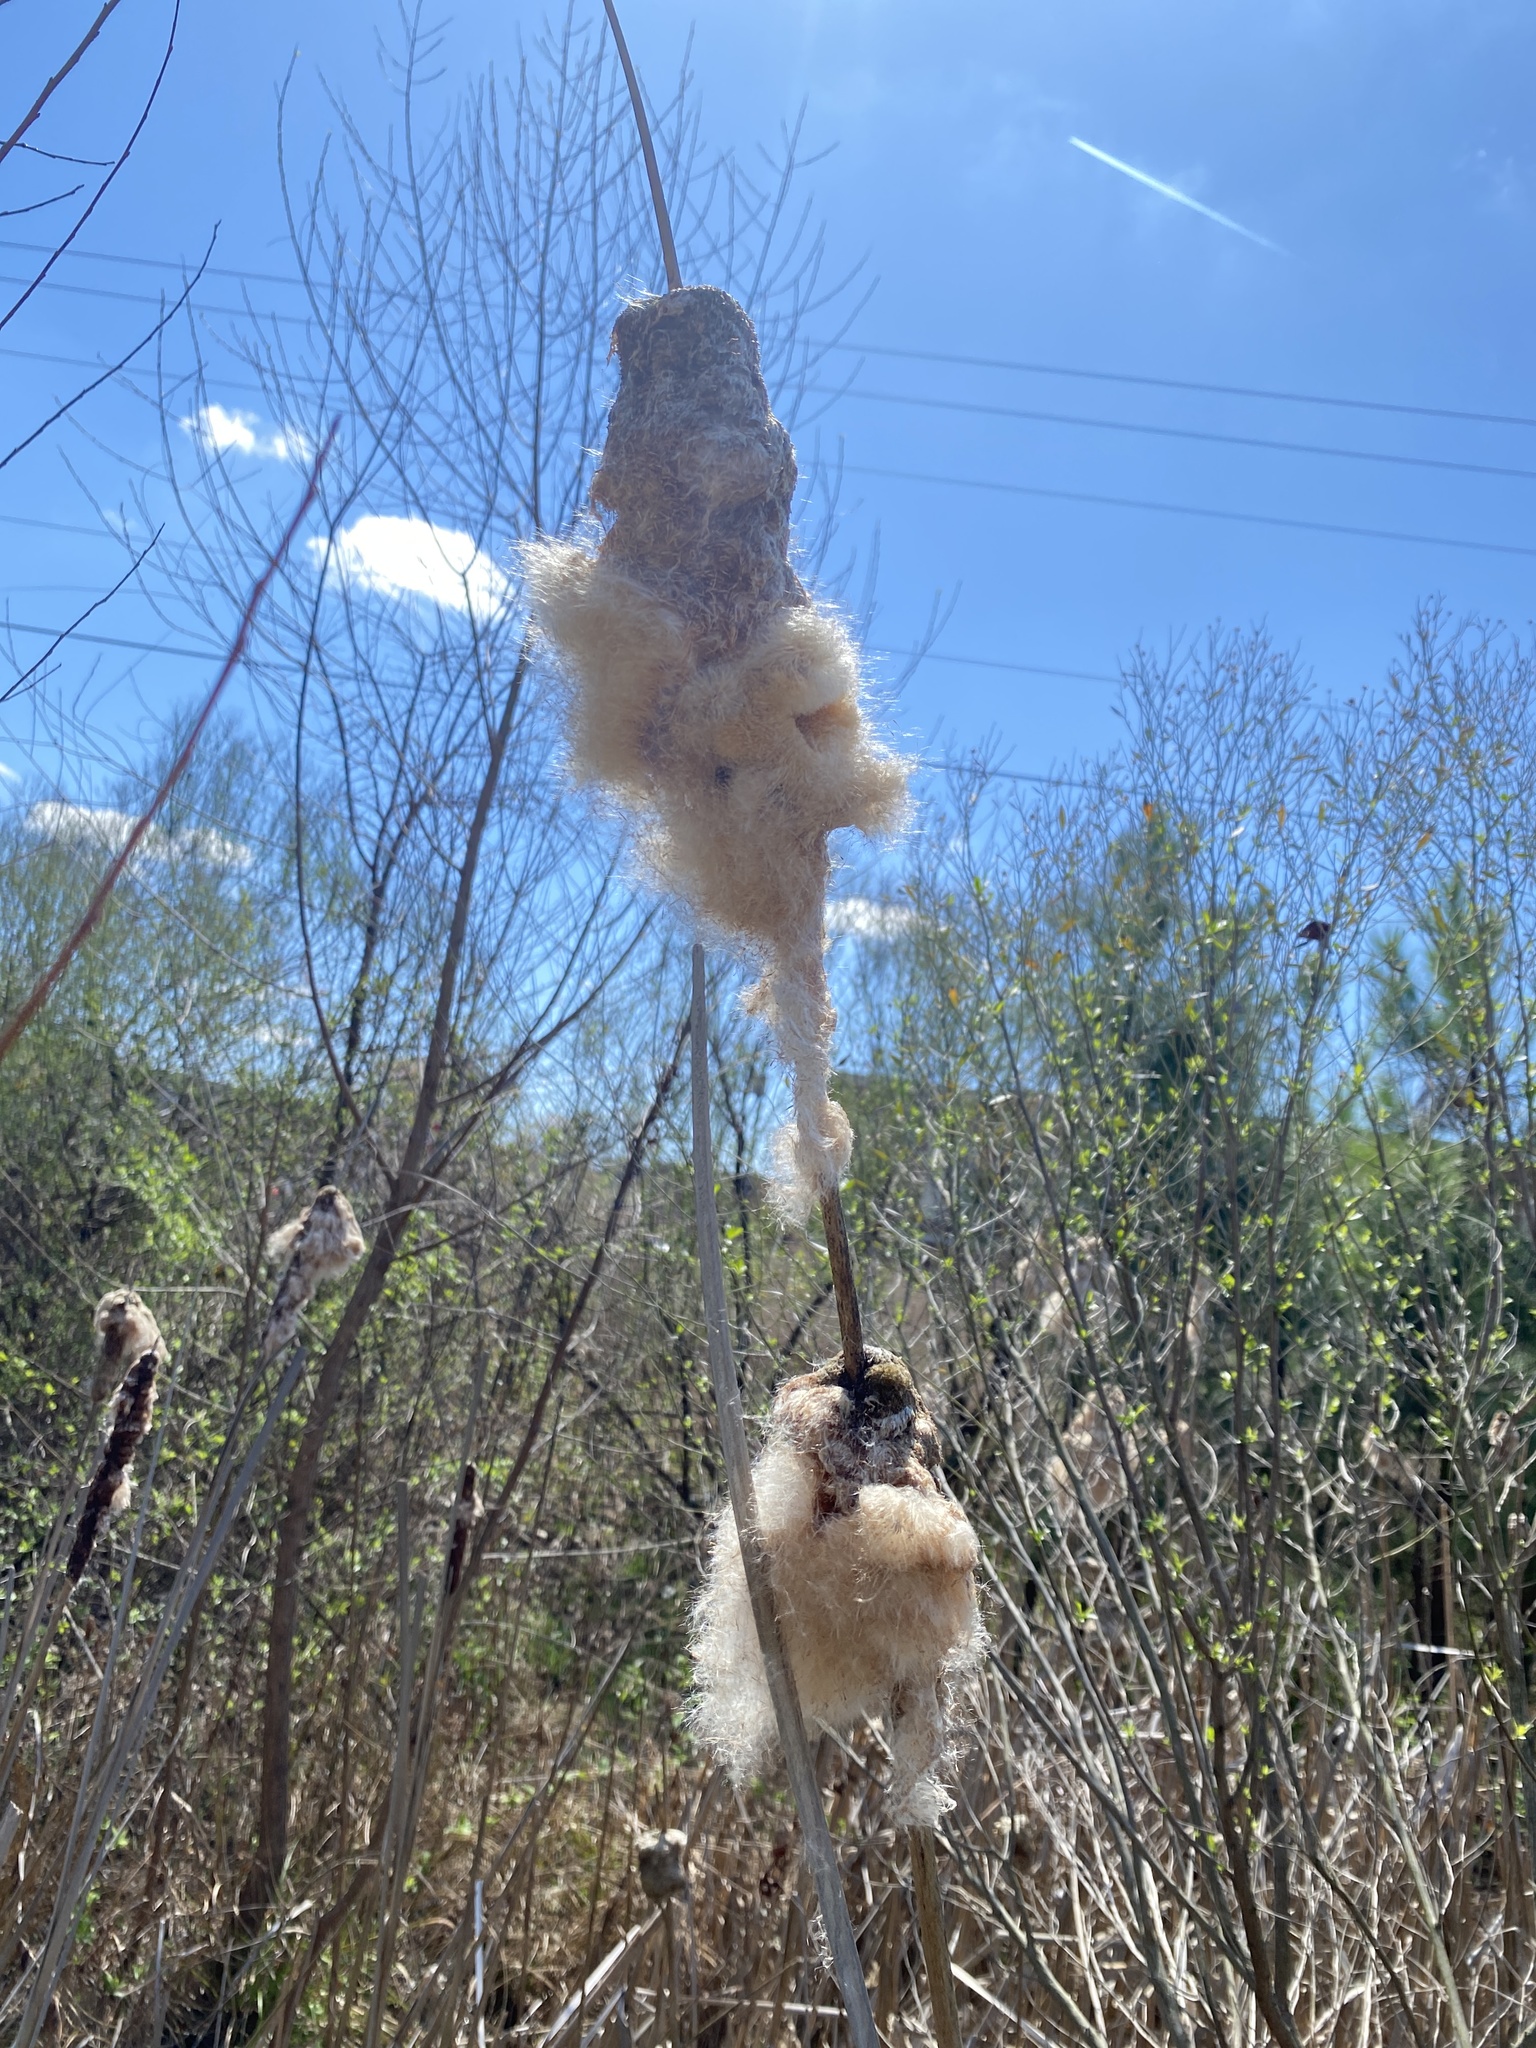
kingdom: Plantae
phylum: Tracheophyta
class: Liliopsida
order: Poales
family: Typhaceae
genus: Typha
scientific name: Typha latifolia
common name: Broadleaf cattail
